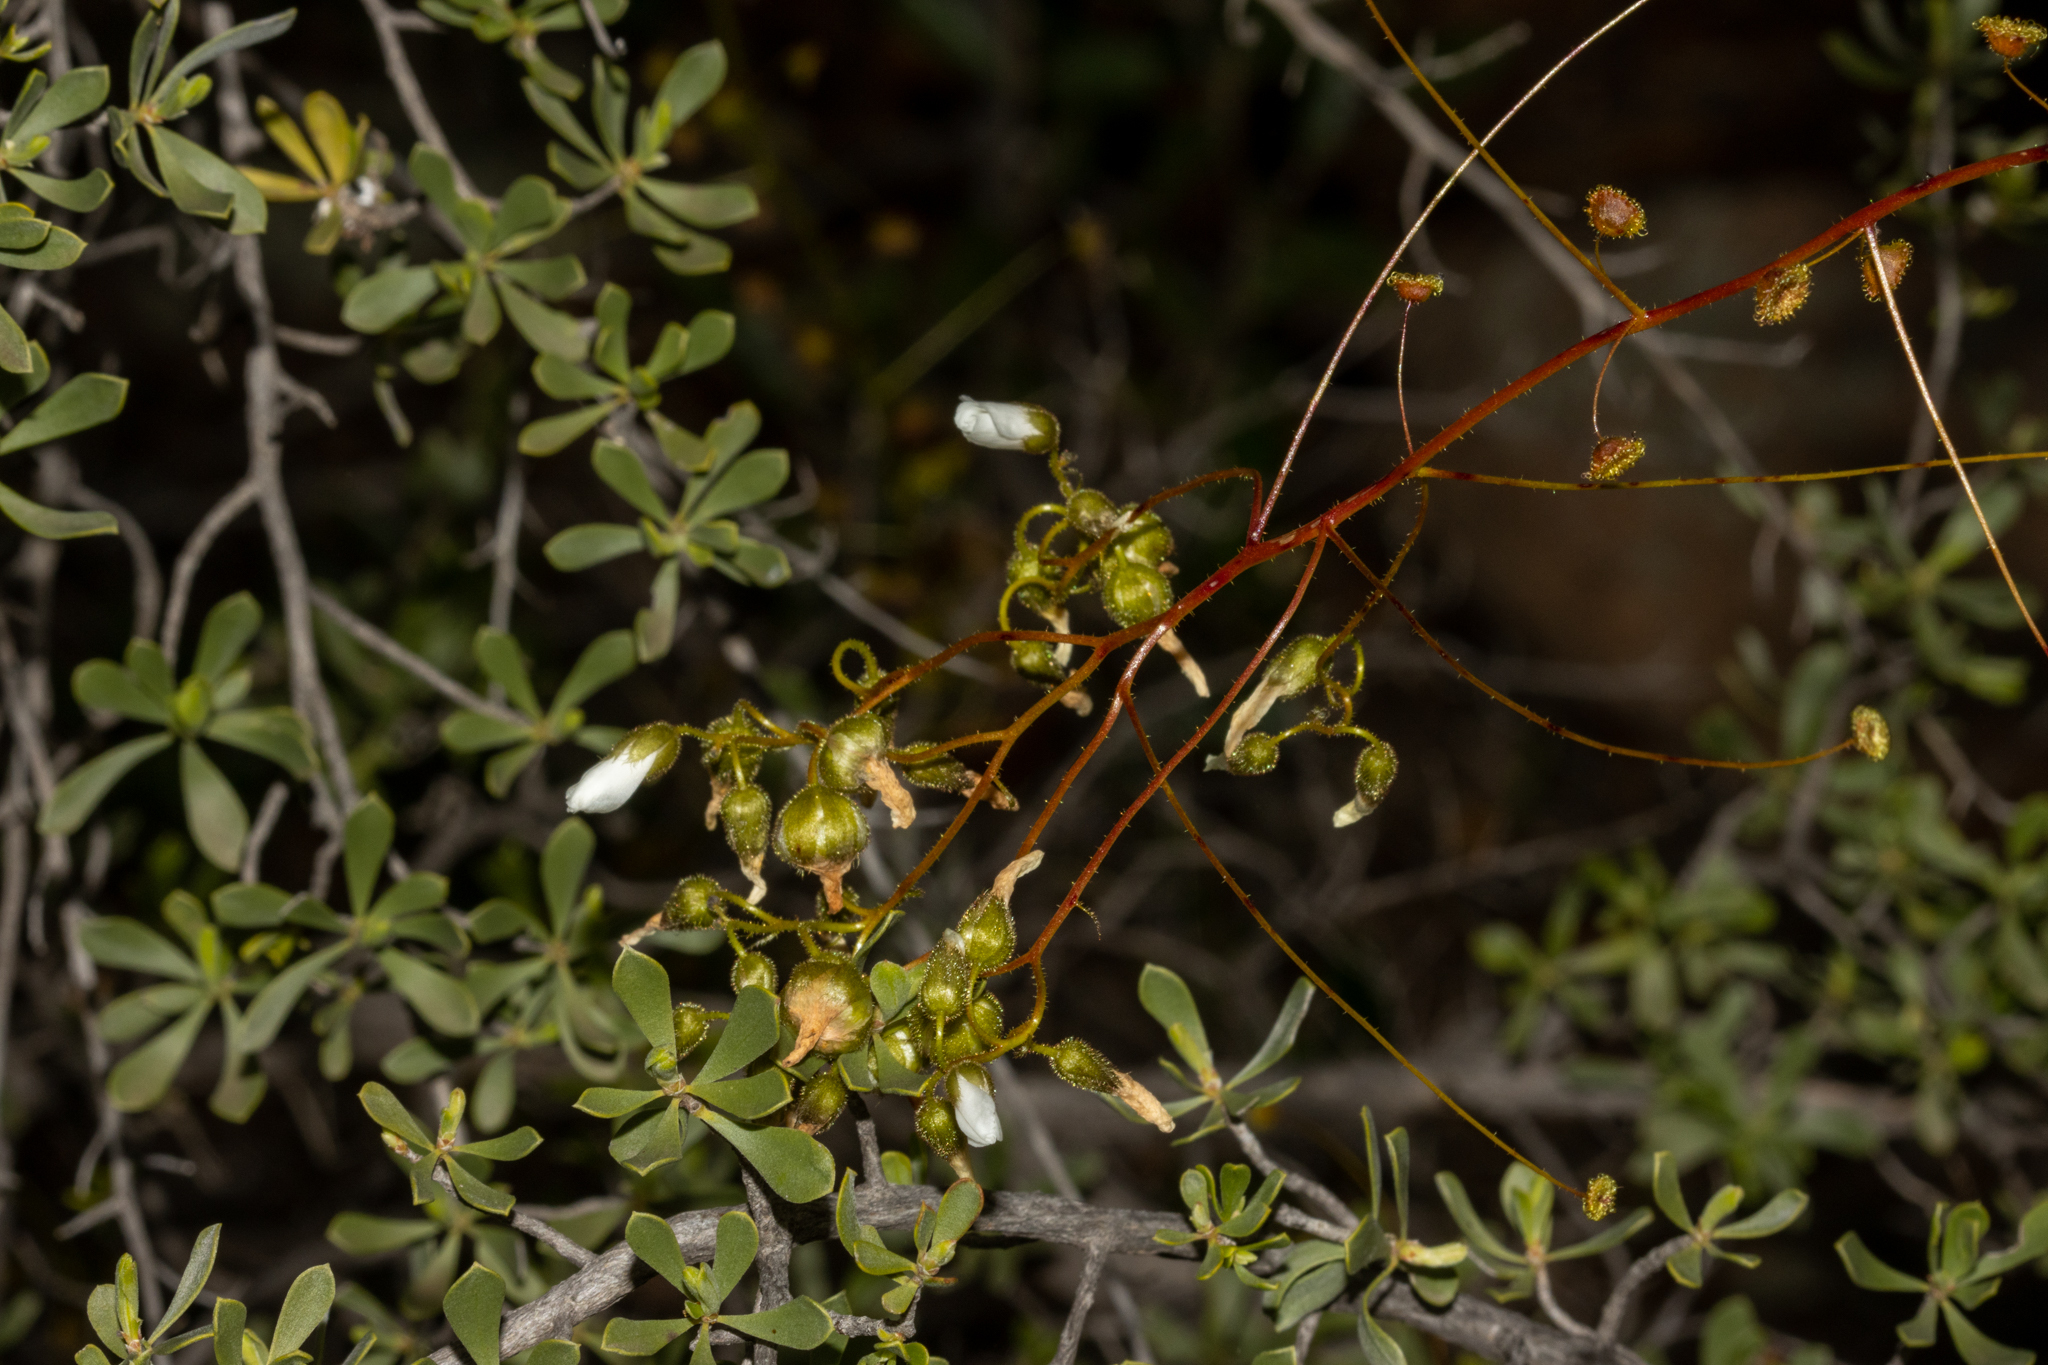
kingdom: Plantae
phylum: Tracheophyta
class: Magnoliopsida
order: Caryophyllales
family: Droseraceae
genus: Drosera
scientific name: Drosera macrantha
